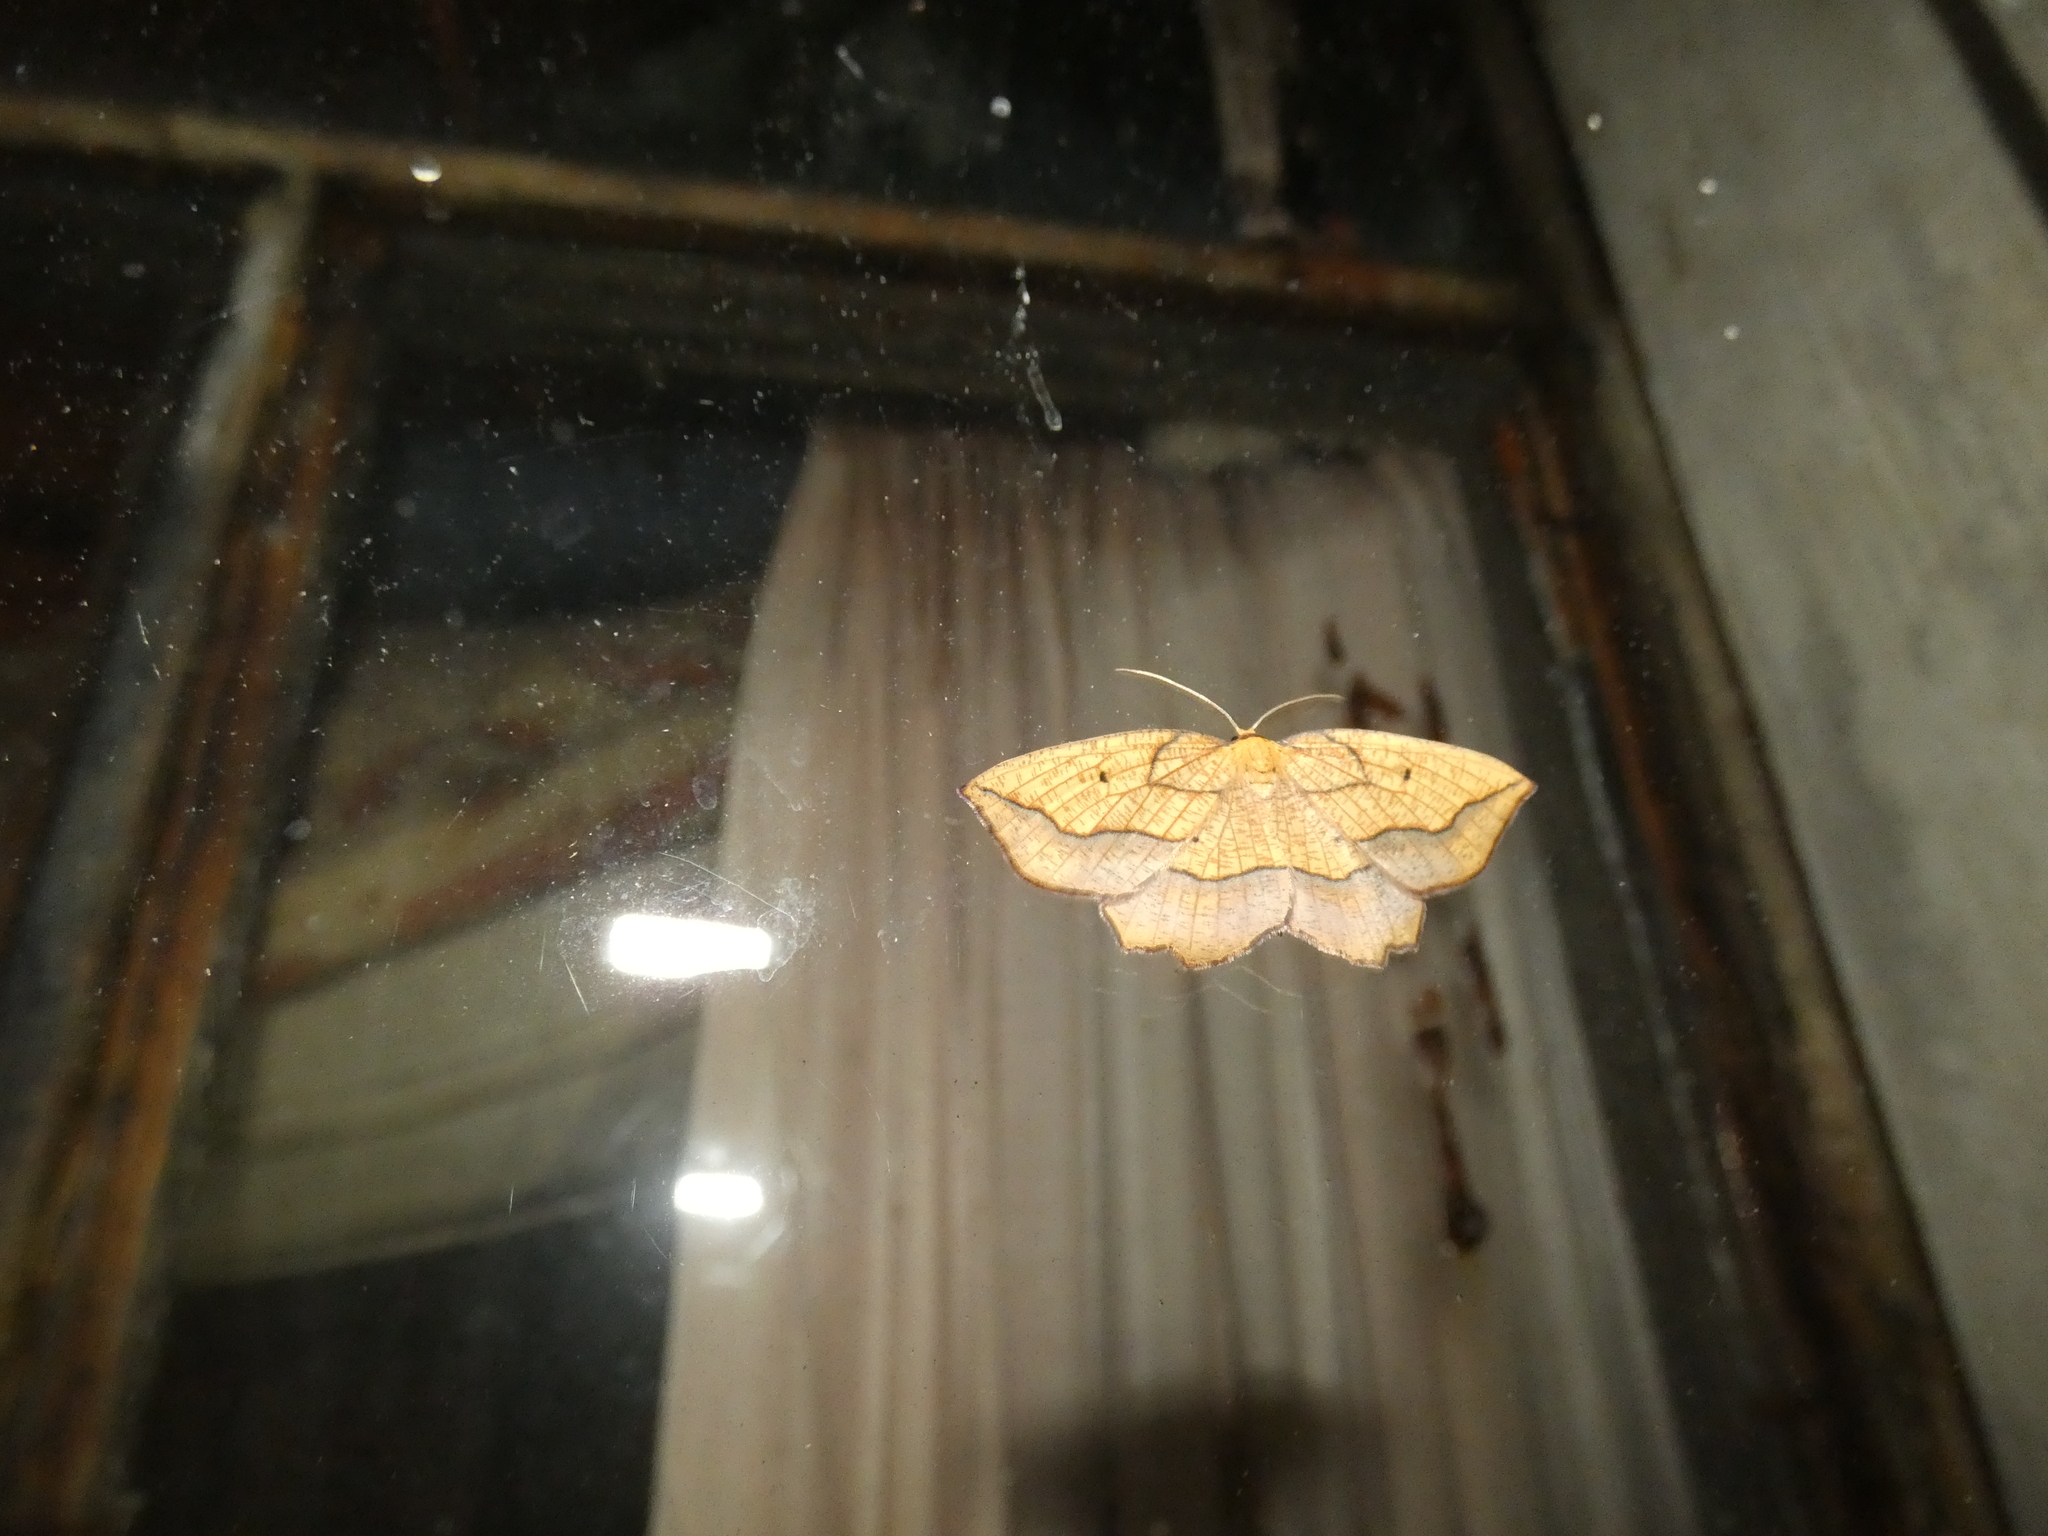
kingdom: Animalia
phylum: Arthropoda
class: Insecta
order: Lepidoptera
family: Geometridae
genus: Epione
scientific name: Epione repandaria
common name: Bordered beauty
